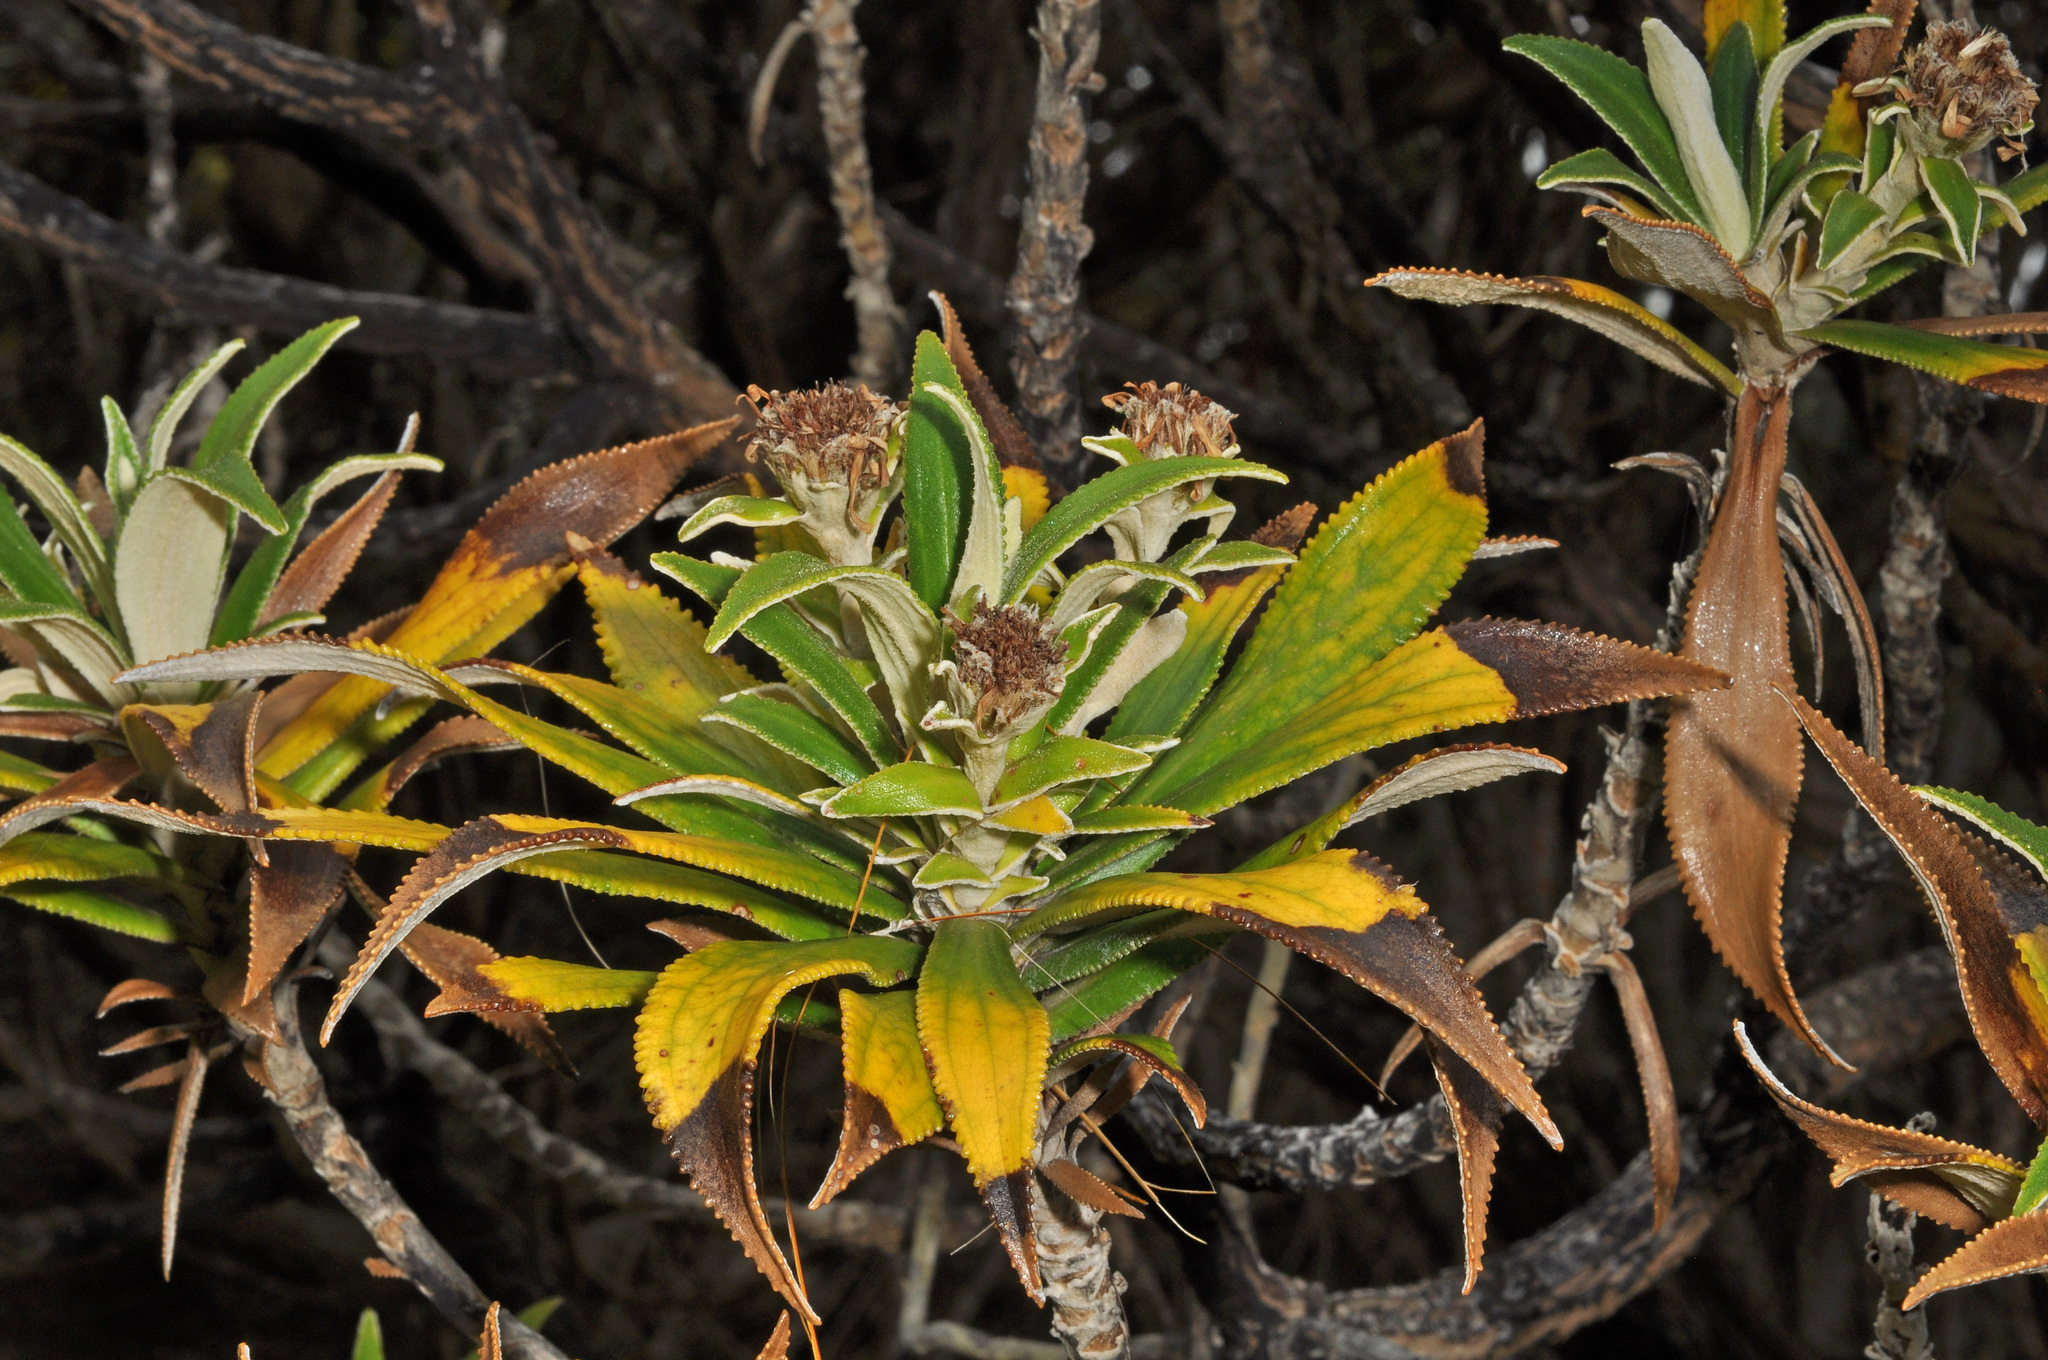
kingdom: Plantae
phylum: Tracheophyta
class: Magnoliopsida
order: Asterales
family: Asteraceae
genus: Macrolearia
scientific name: Macrolearia angustifolia
